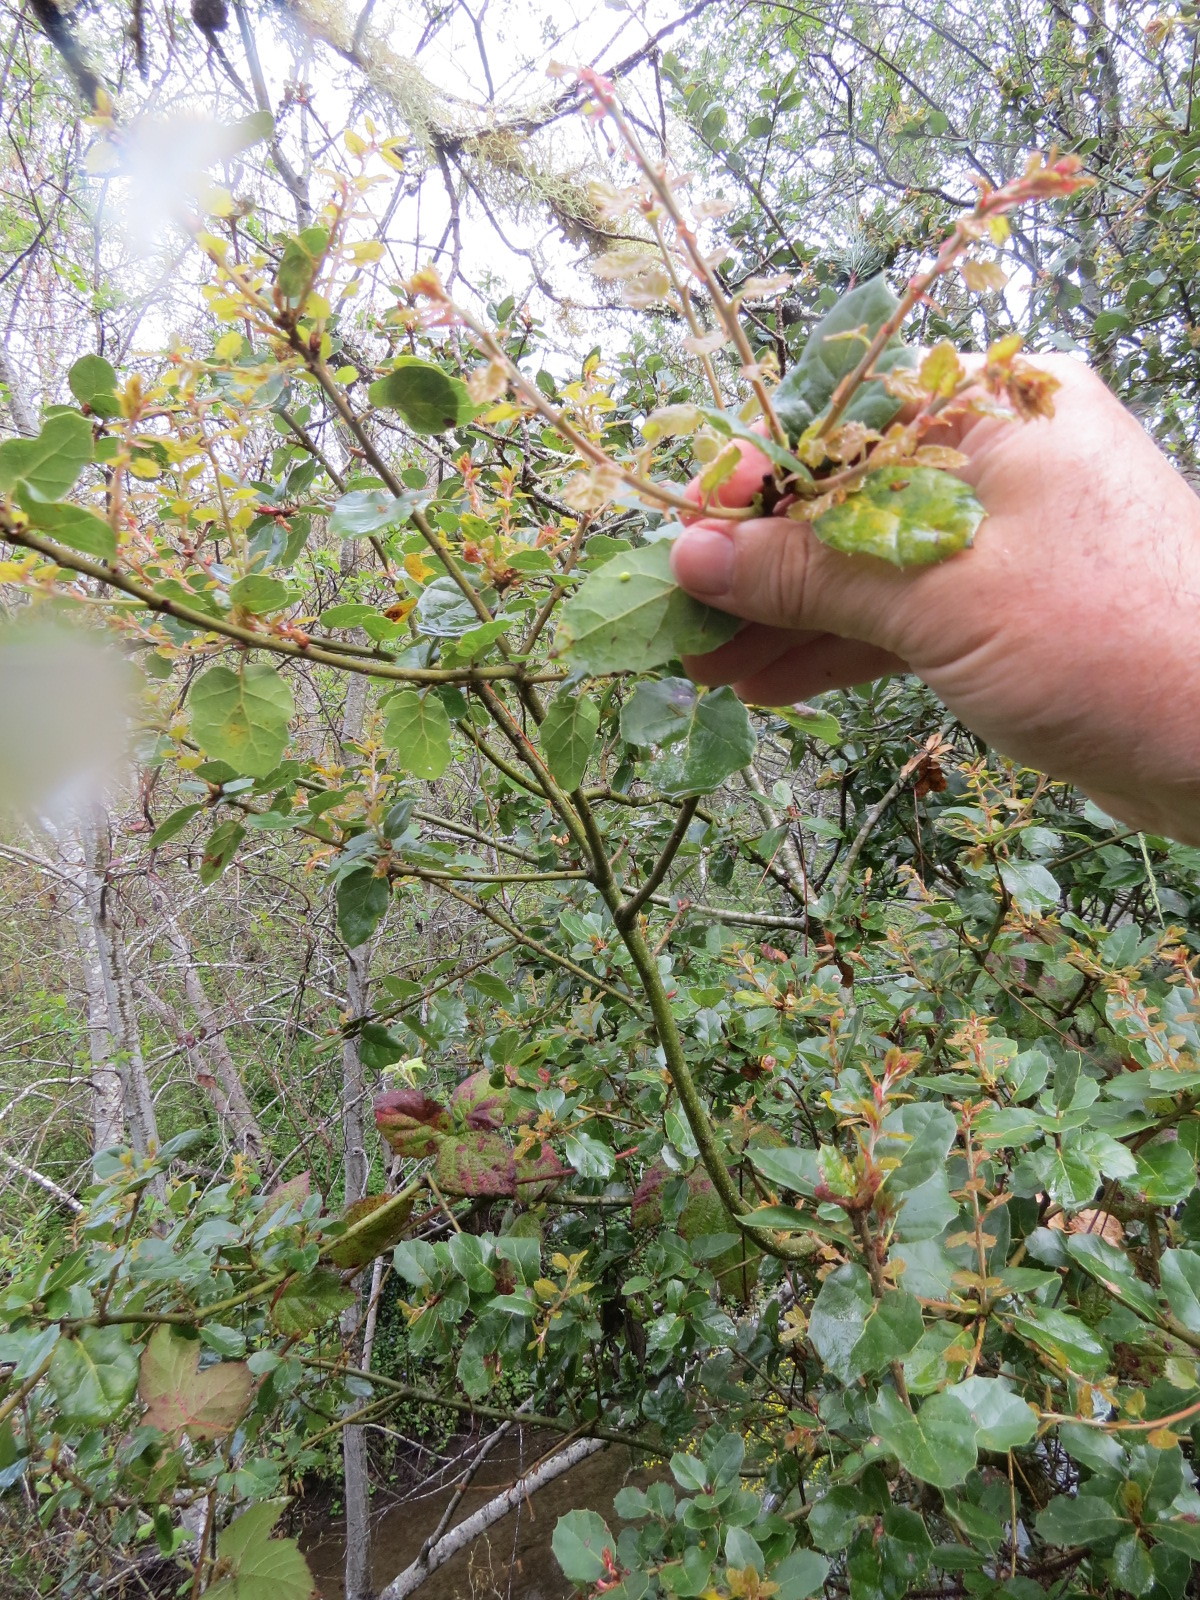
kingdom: Animalia
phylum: Arthropoda
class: Insecta
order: Hymenoptera
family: Cynipidae
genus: Dryocosmus
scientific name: Dryocosmus
